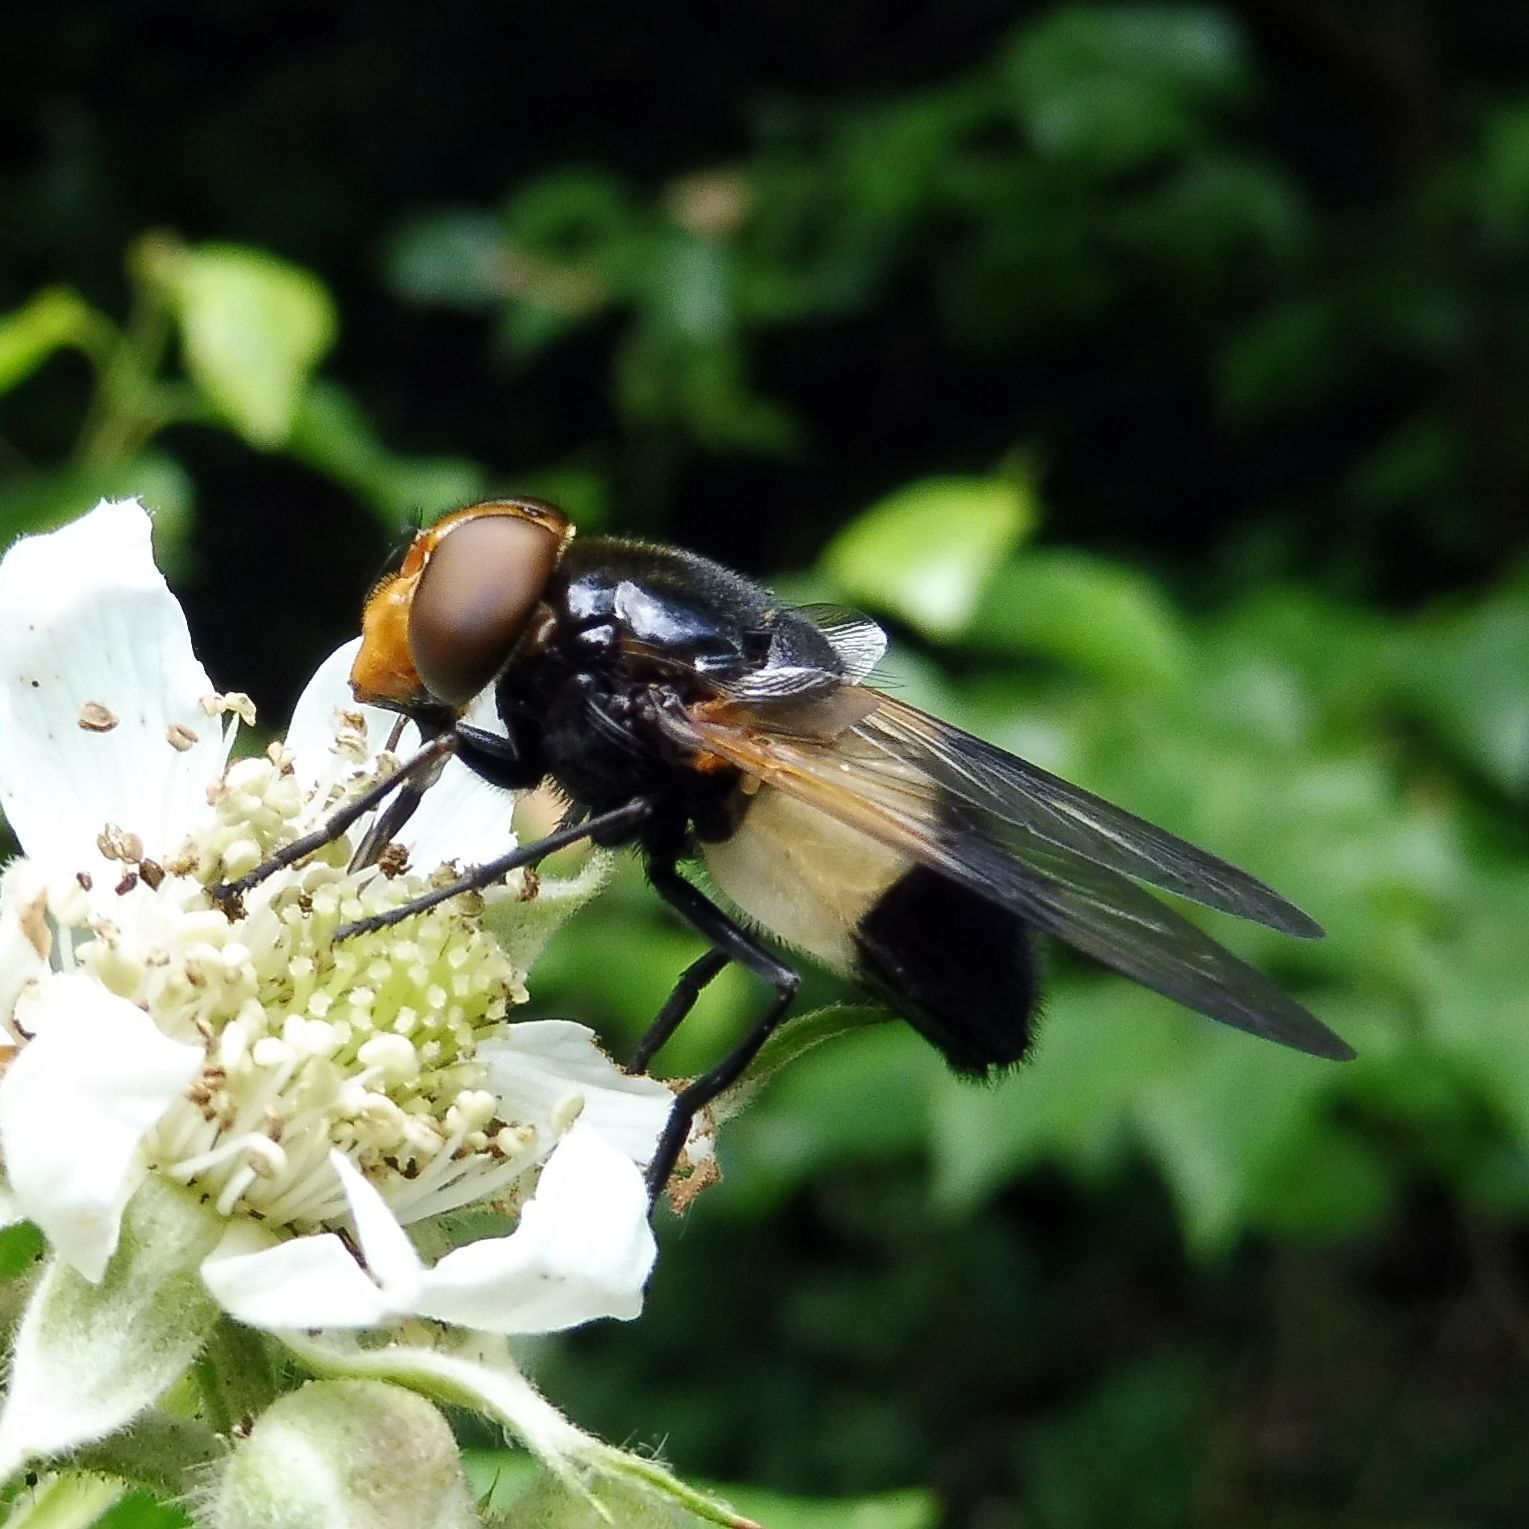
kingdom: Animalia
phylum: Arthropoda
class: Insecta
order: Diptera
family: Syrphidae
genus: Volucella
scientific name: Volucella pellucens
